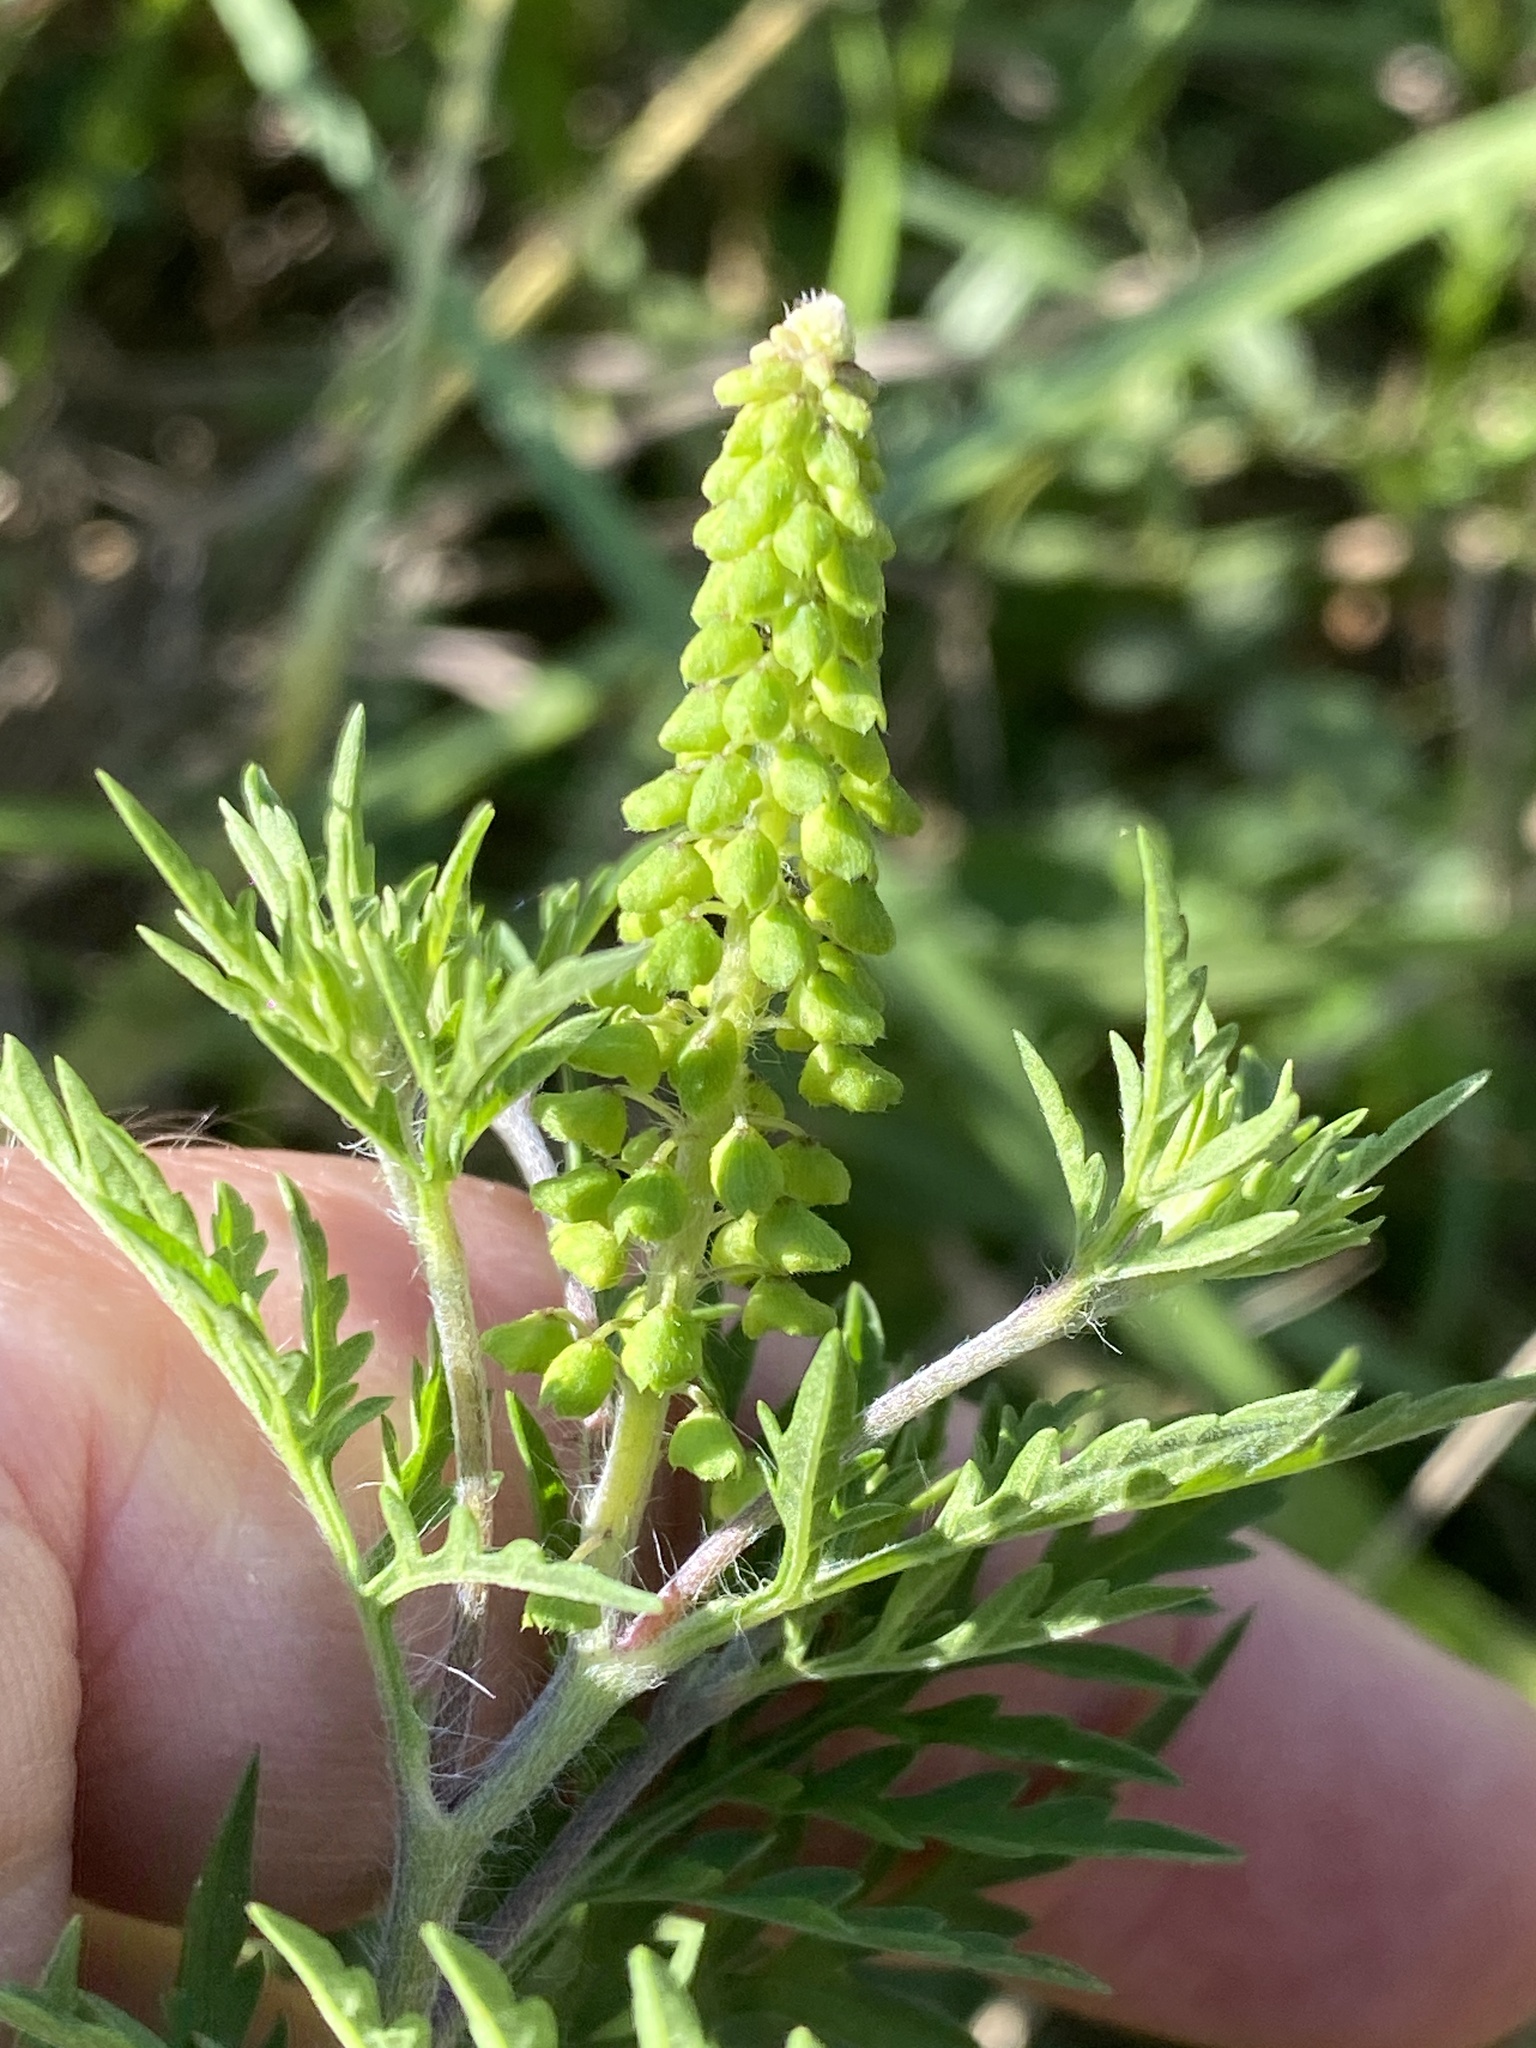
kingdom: Plantae
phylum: Tracheophyta
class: Magnoliopsida
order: Asterales
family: Asteraceae
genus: Ambrosia
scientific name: Ambrosia artemisiifolia
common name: Annual ragweed
